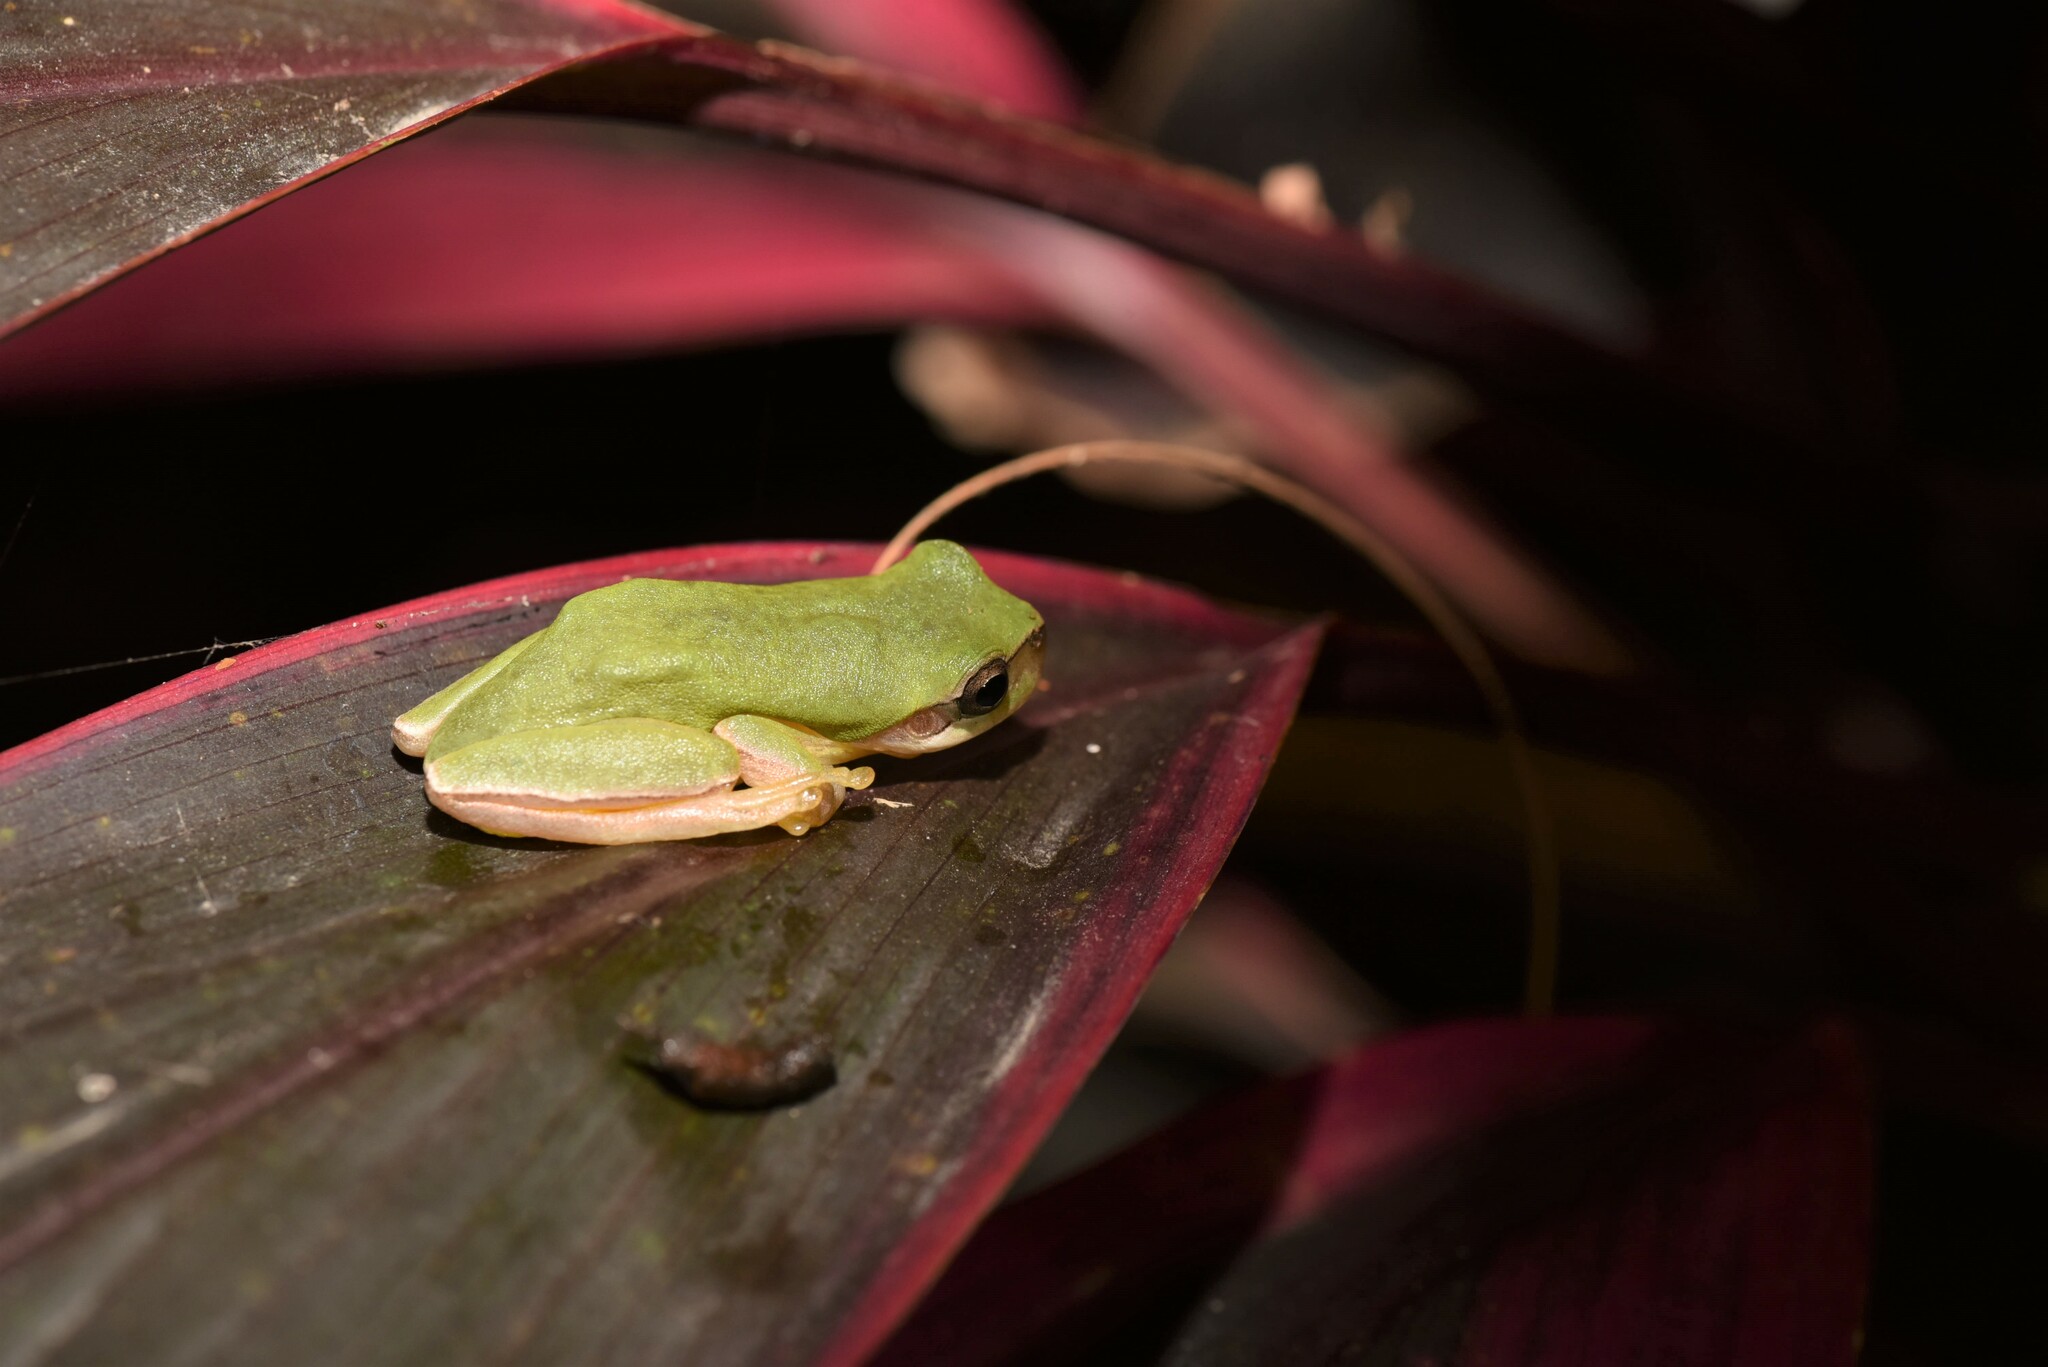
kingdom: Animalia
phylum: Chordata
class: Amphibia
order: Anura
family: Hylidae
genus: Hyla
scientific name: Hyla chinensis
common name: Common chinese treefrog
